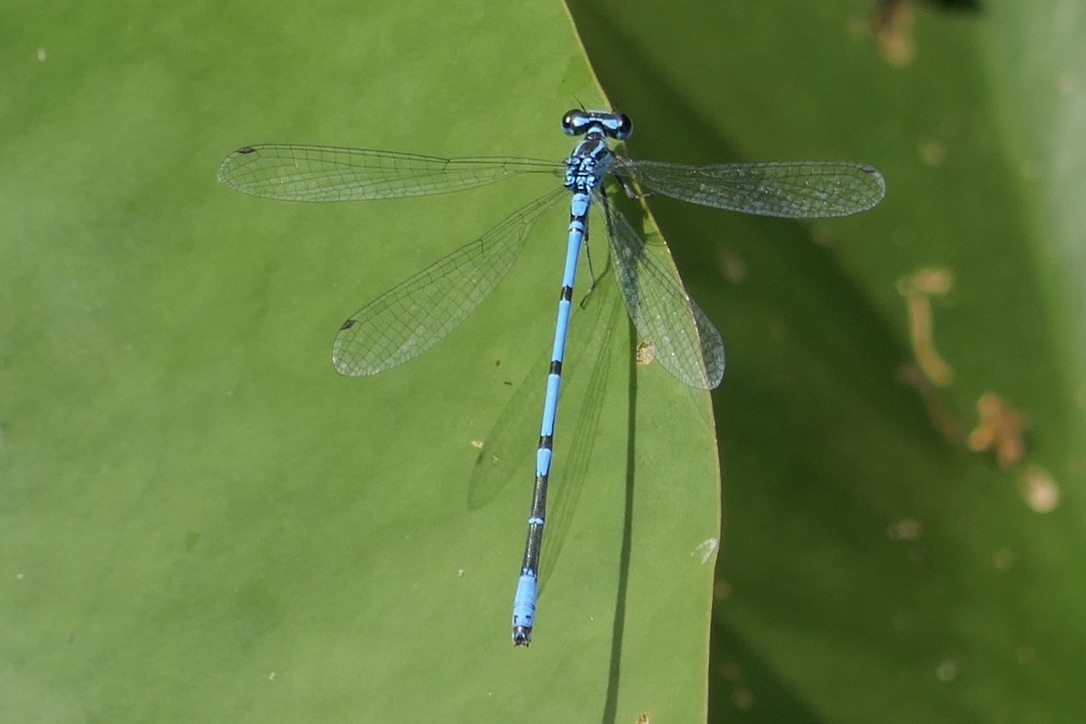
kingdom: Animalia
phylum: Arthropoda
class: Insecta
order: Odonata
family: Coenagrionidae
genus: Coenagrion
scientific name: Coenagrion puella
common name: Azure damselfly
